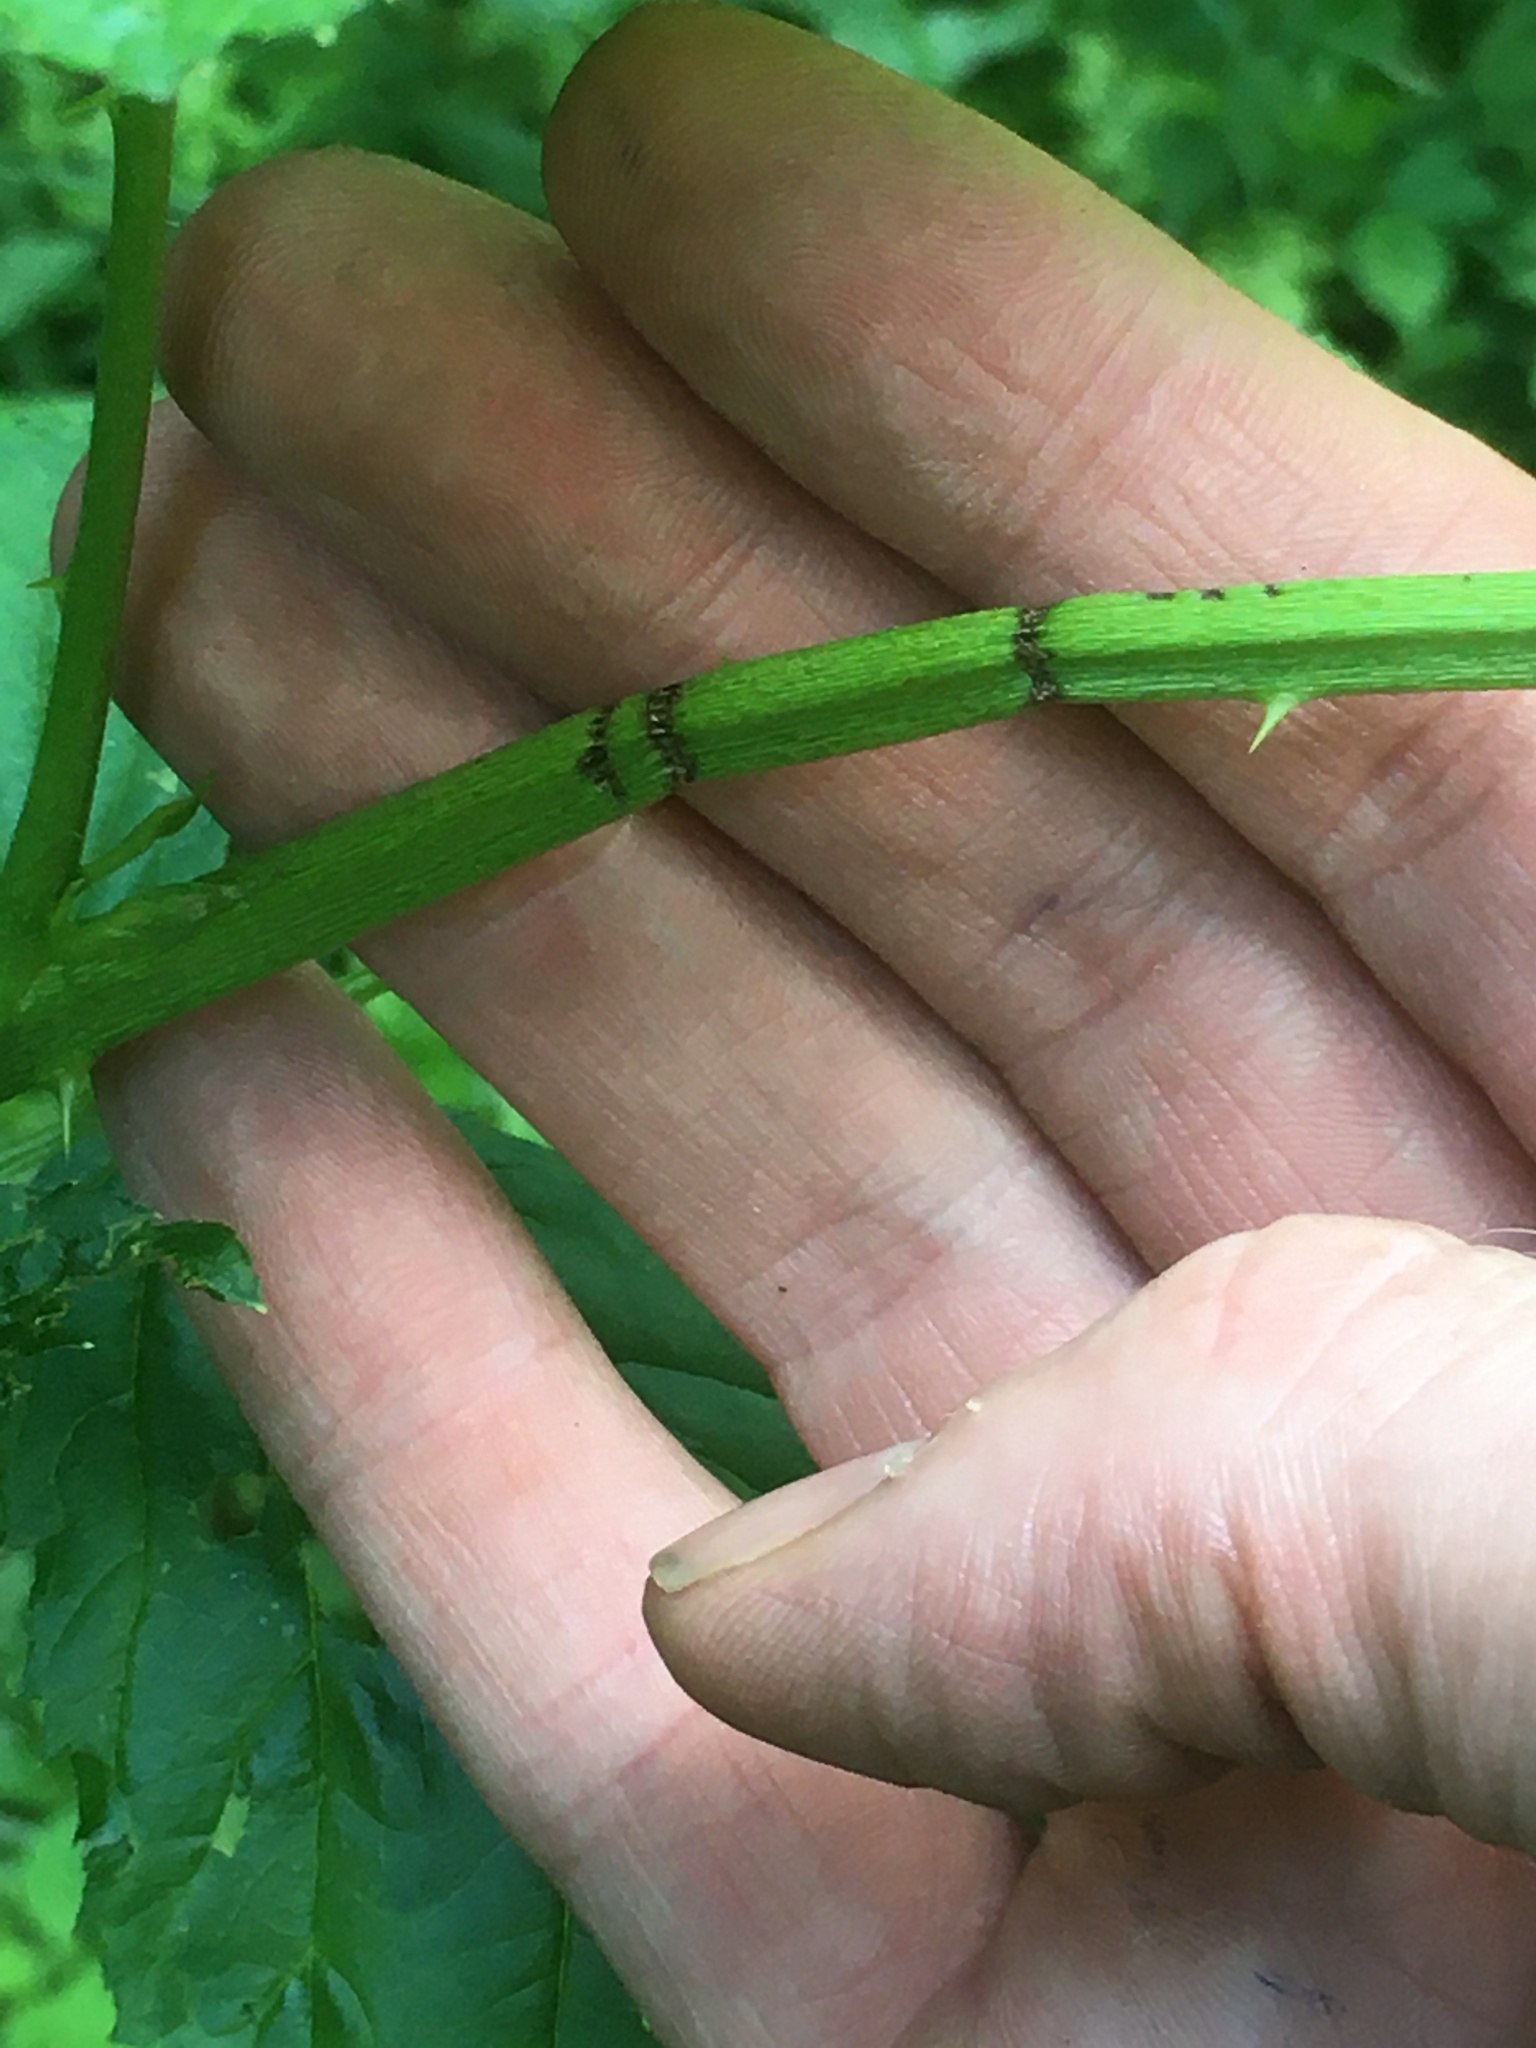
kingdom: Animalia
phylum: Arthropoda
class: Insecta
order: Coleoptera
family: Cerambycidae
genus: Oberea
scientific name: Oberea perspicillata
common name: Raspberry cane borer
